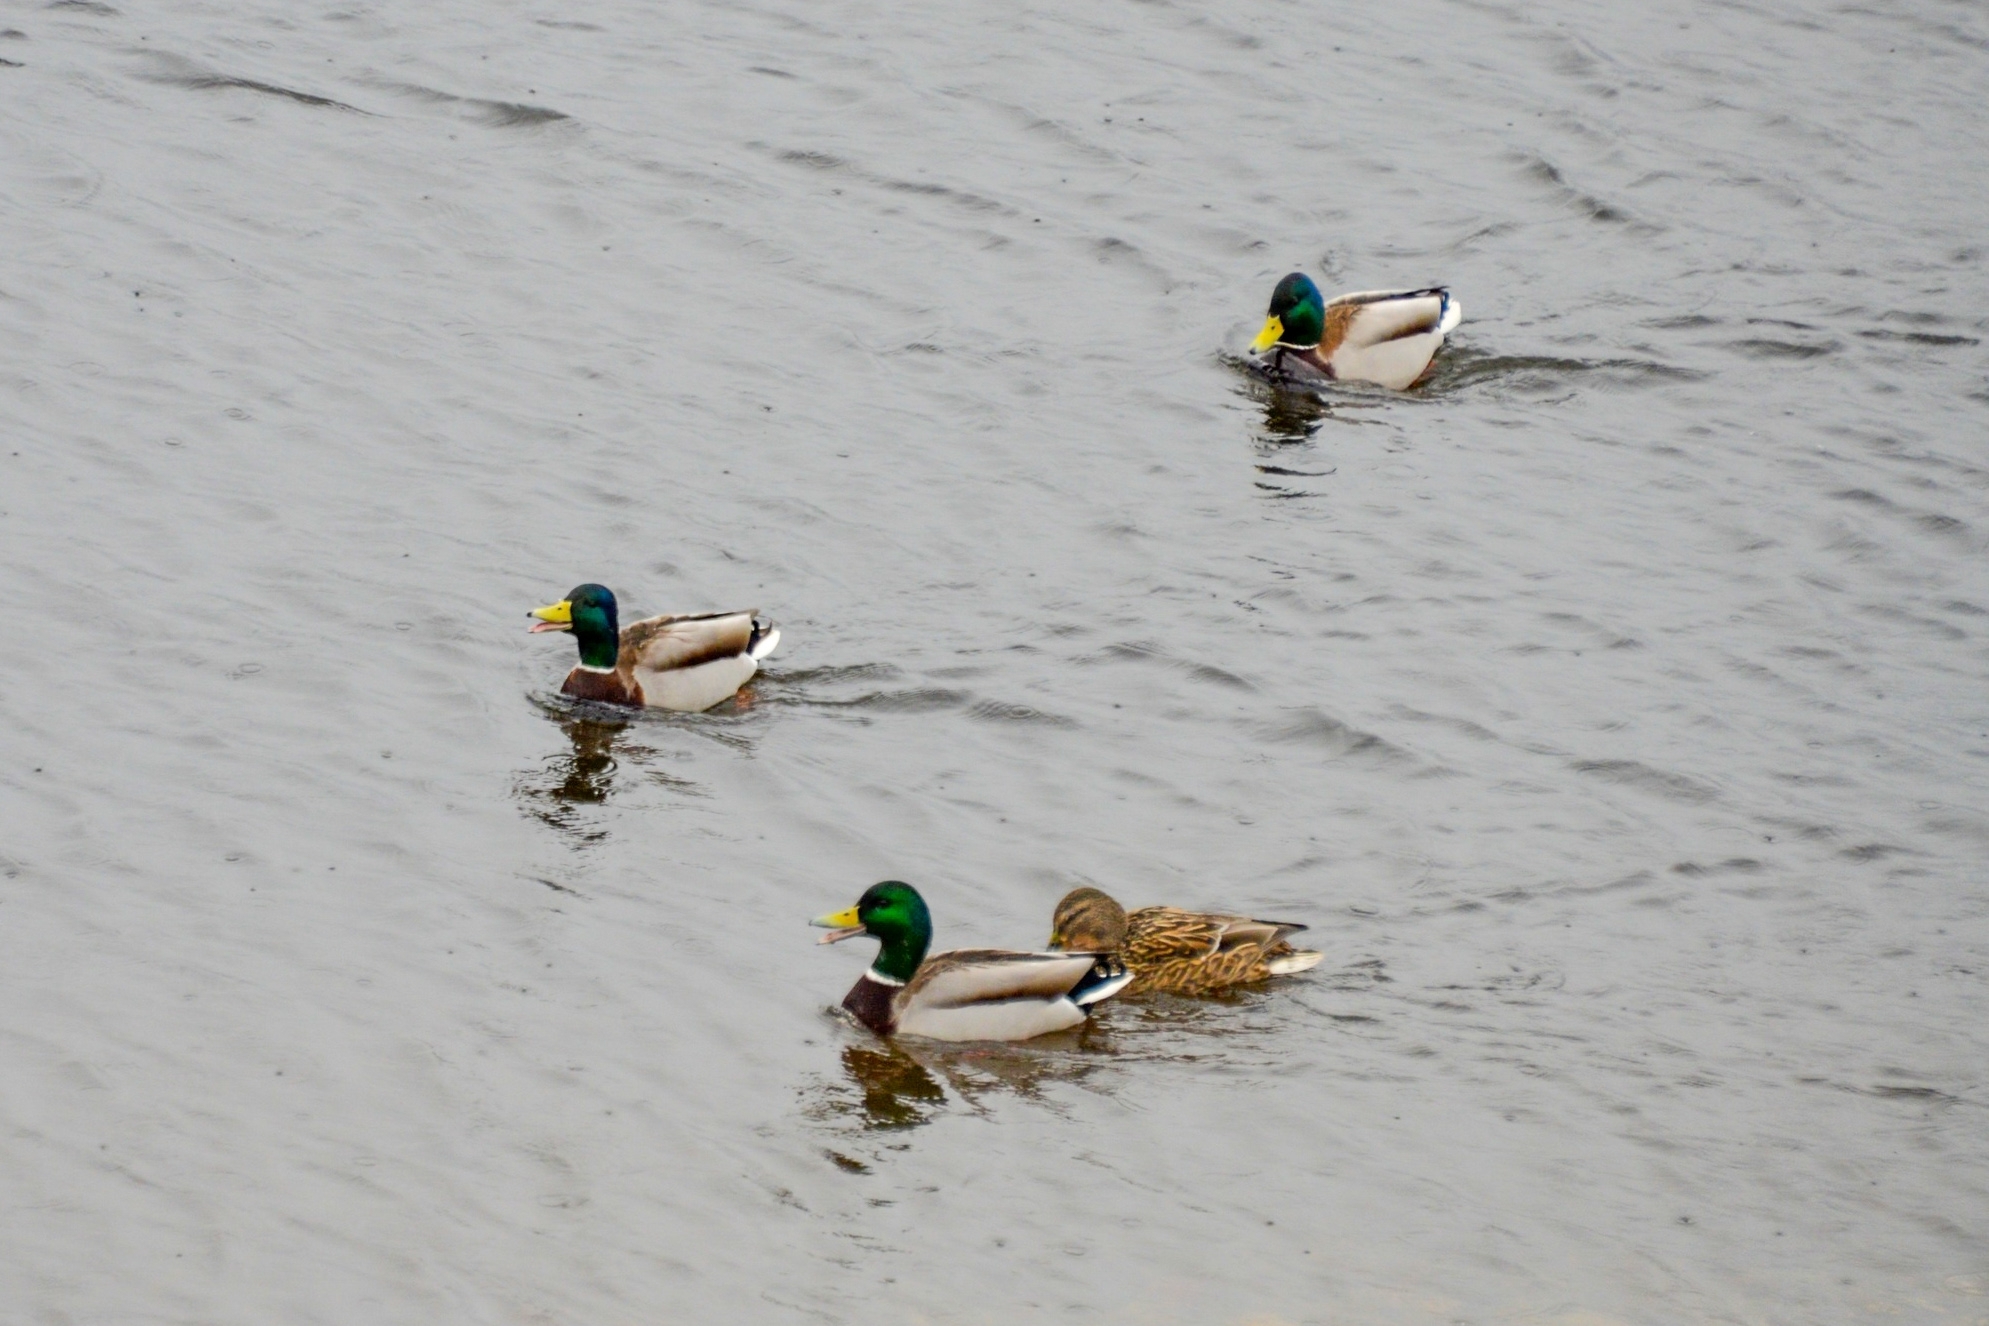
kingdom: Animalia
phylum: Chordata
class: Aves
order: Anseriformes
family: Anatidae
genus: Anas
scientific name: Anas platyrhynchos
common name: Mallard
